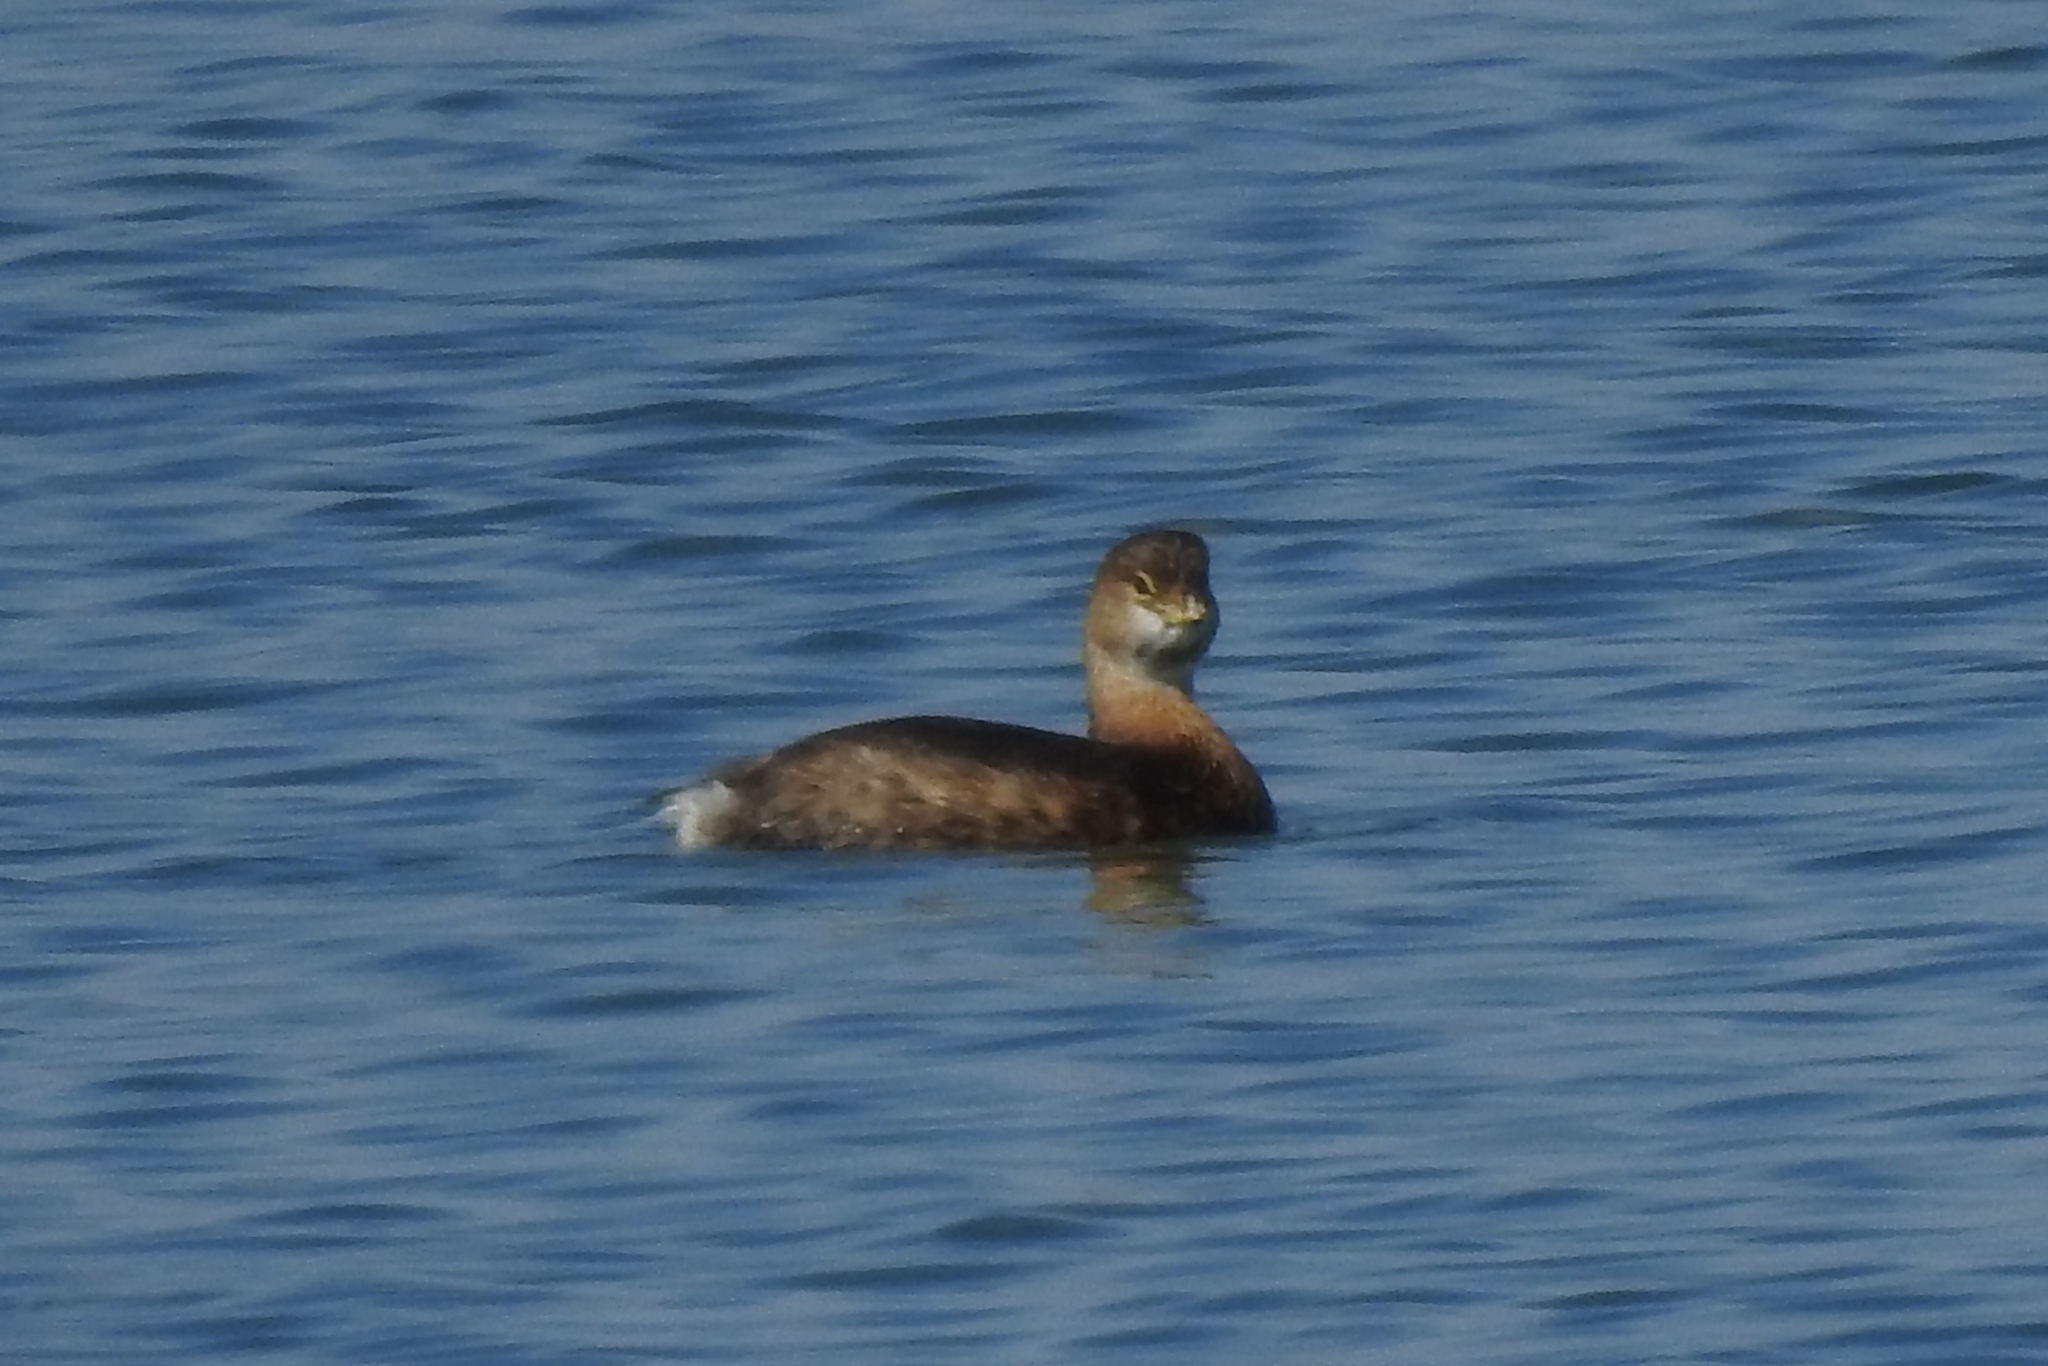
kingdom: Animalia
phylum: Chordata
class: Aves
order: Podicipediformes
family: Podicipedidae
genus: Podilymbus
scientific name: Podilymbus podiceps
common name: Pied-billed grebe
